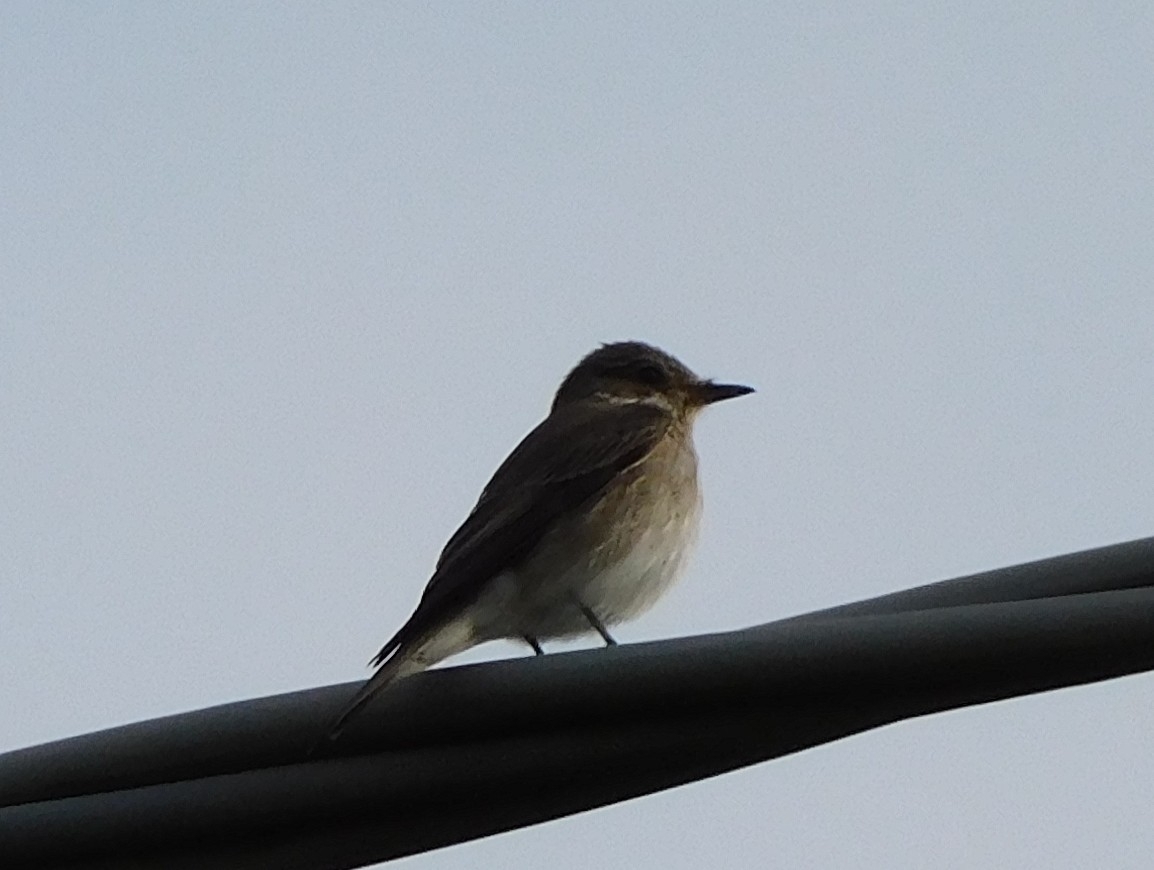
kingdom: Animalia
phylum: Chordata
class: Aves
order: Passeriformes
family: Muscicapidae
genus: Muscicapa
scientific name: Muscicapa striata
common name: Spotted flycatcher
